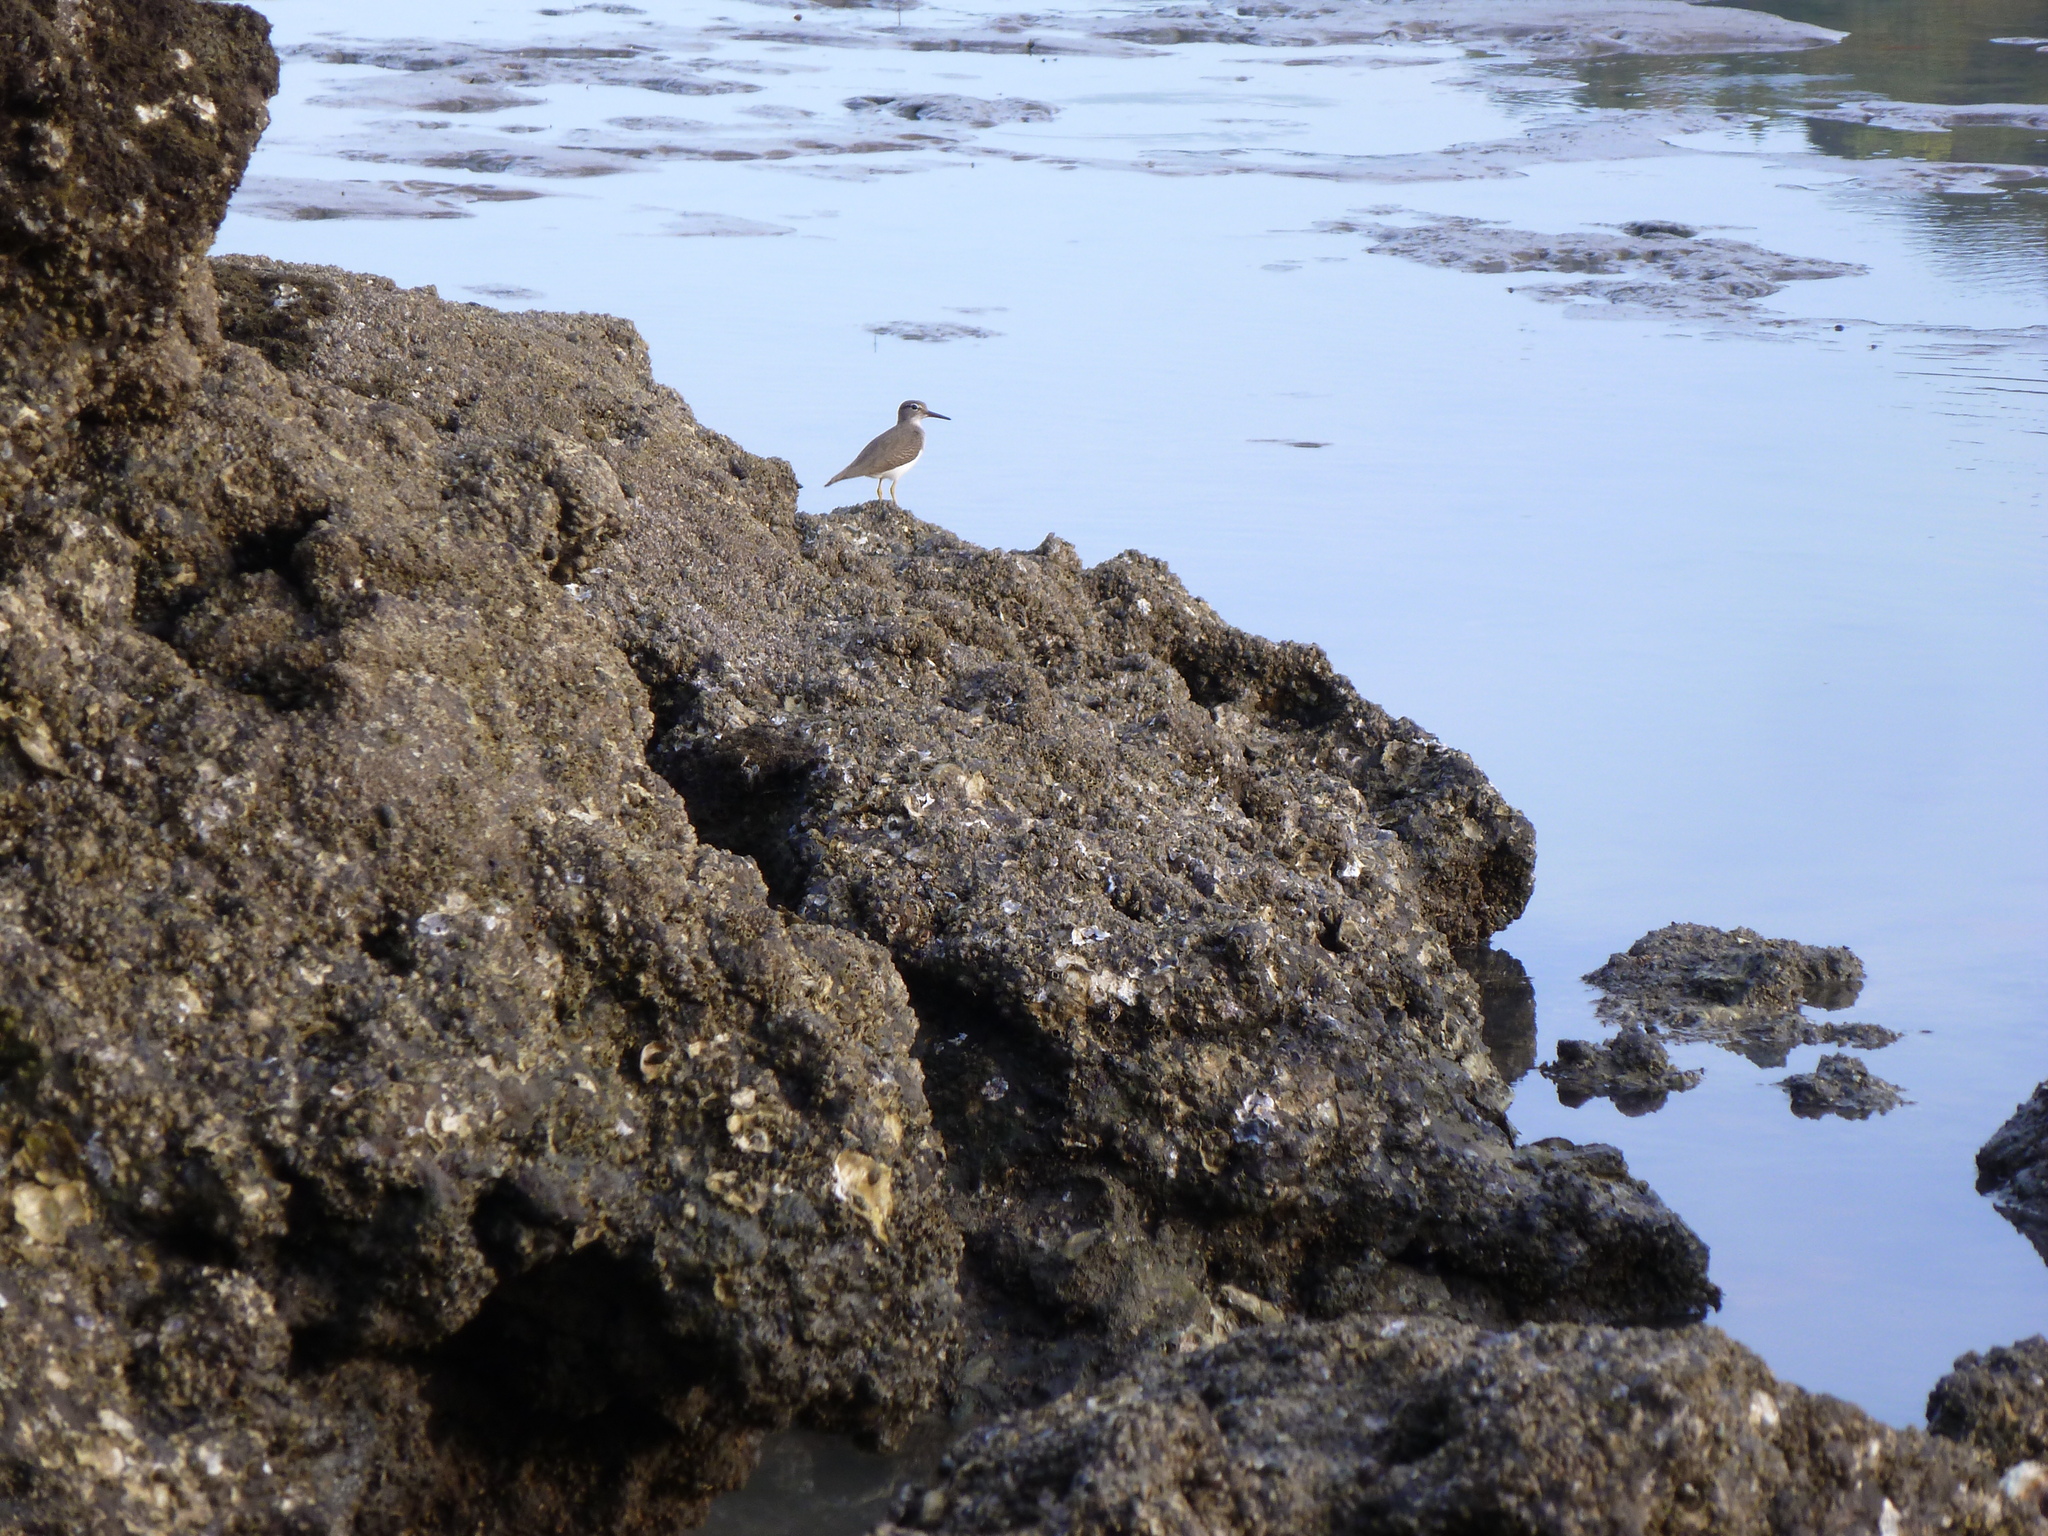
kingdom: Animalia
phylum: Chordata
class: Aves
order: Charadriiformes
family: Scolopacidae
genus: Actitis
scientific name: Actitis macularius
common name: Spotted sandpiper
